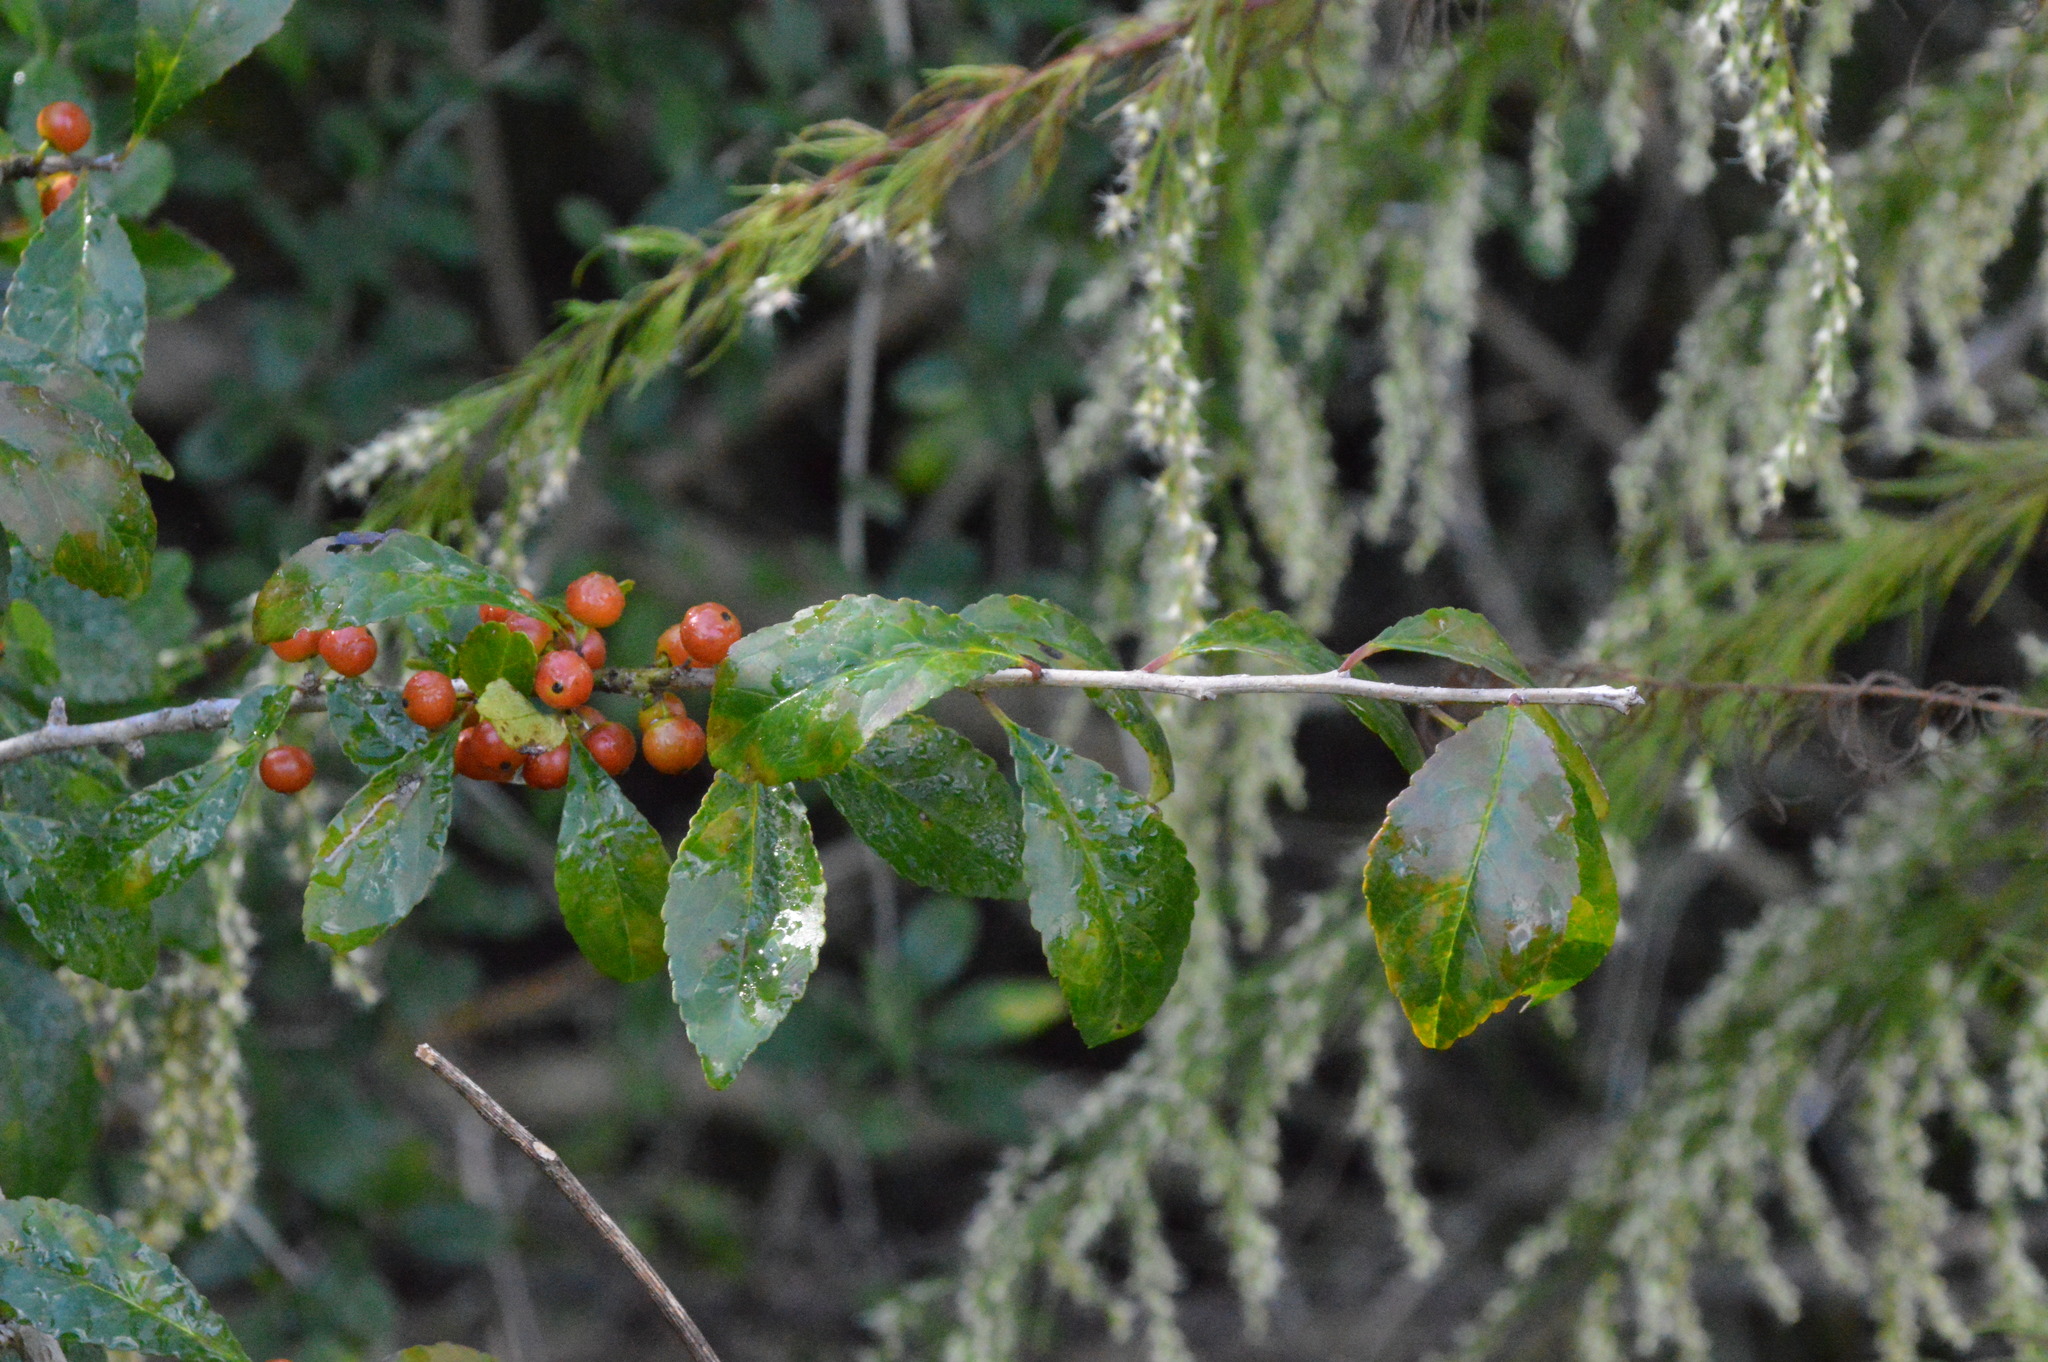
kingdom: Plantae
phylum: Tracheophyta
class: Magnoliopsida
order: Aquifoliales
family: Aquifoliaceae
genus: Ilex
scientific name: Ilex decidua
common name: Possum-haw
